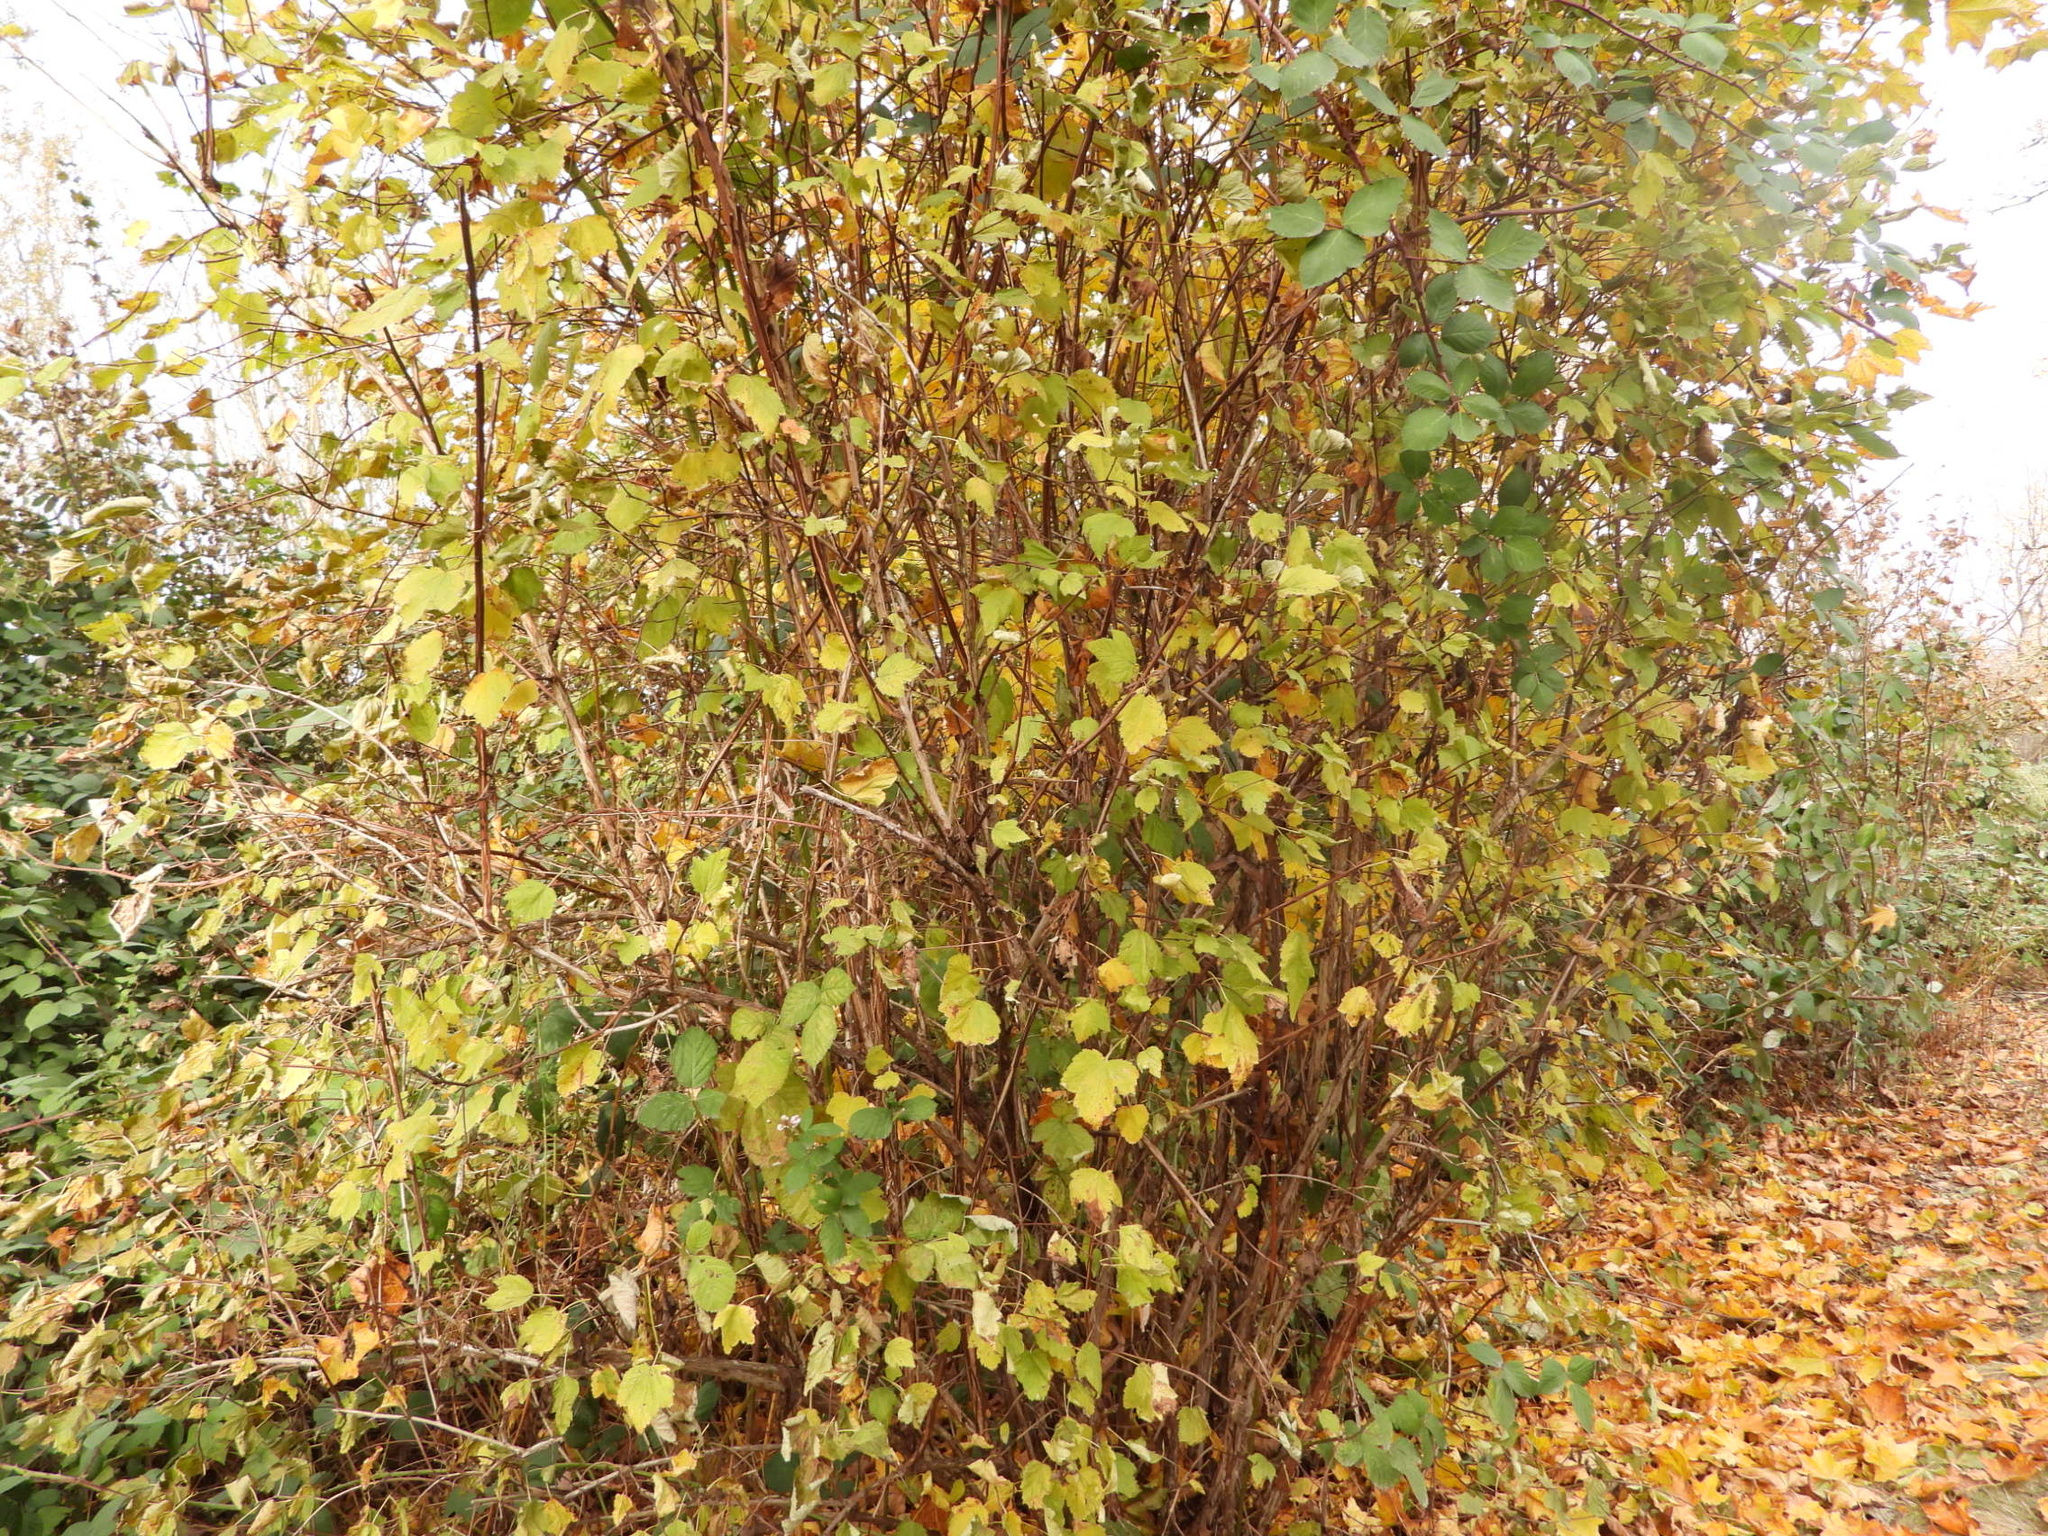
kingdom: Plantae
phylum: Tracheophyta
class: Magnoliopsida
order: Rosales
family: Rosaceae
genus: Physocarpus
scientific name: Physocarpus capitatus
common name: Pacific ninebark
